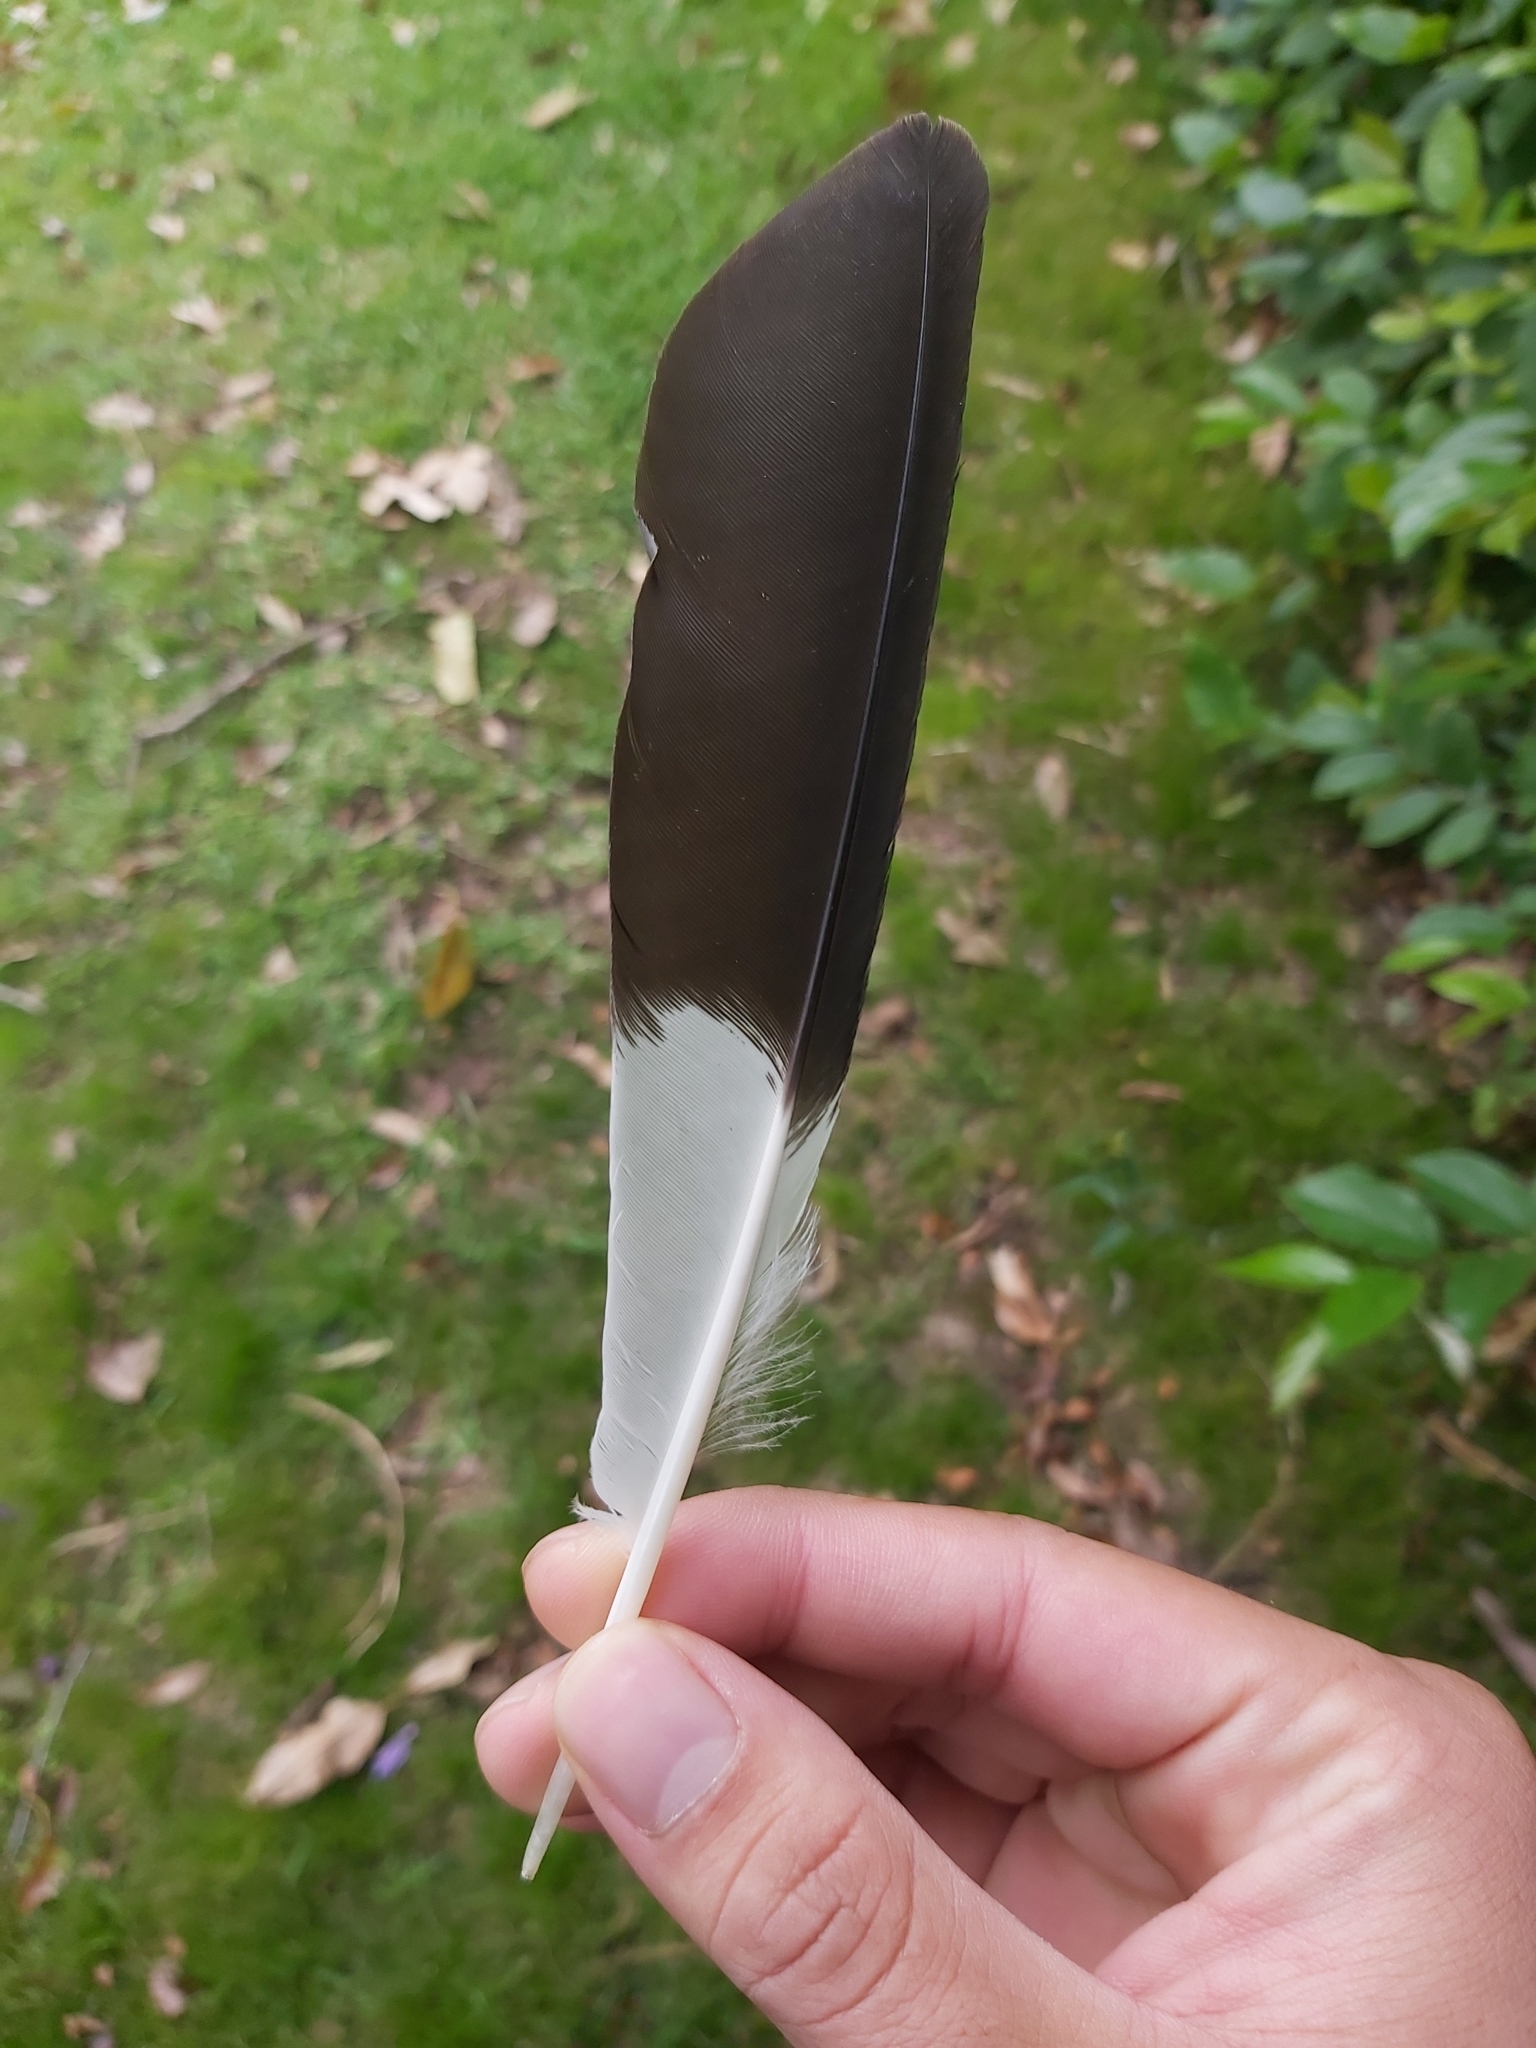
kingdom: Animalia
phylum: Chordata
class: Aves
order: Passeriformes
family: Cracticidae
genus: Strepera
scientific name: Strepera graculina
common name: Pied currawong
